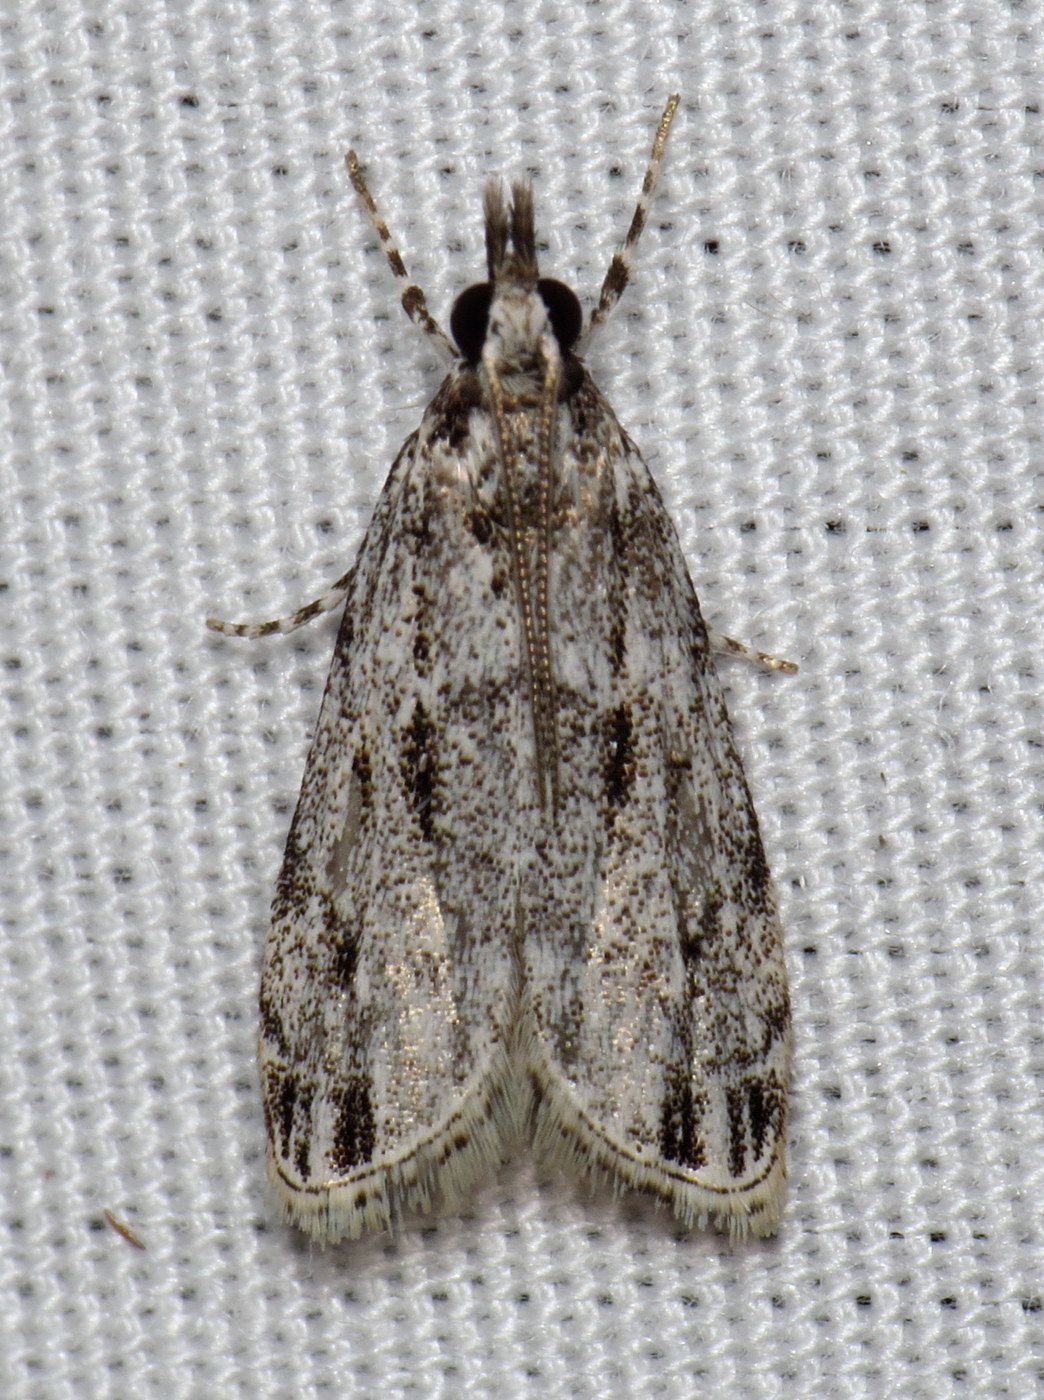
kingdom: Animalia
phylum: Arthropoda
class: Insecta
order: Lepidoptera
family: Crambidae
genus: Eudonia
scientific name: Eudonia strigalis
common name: Striped eudonia moth
